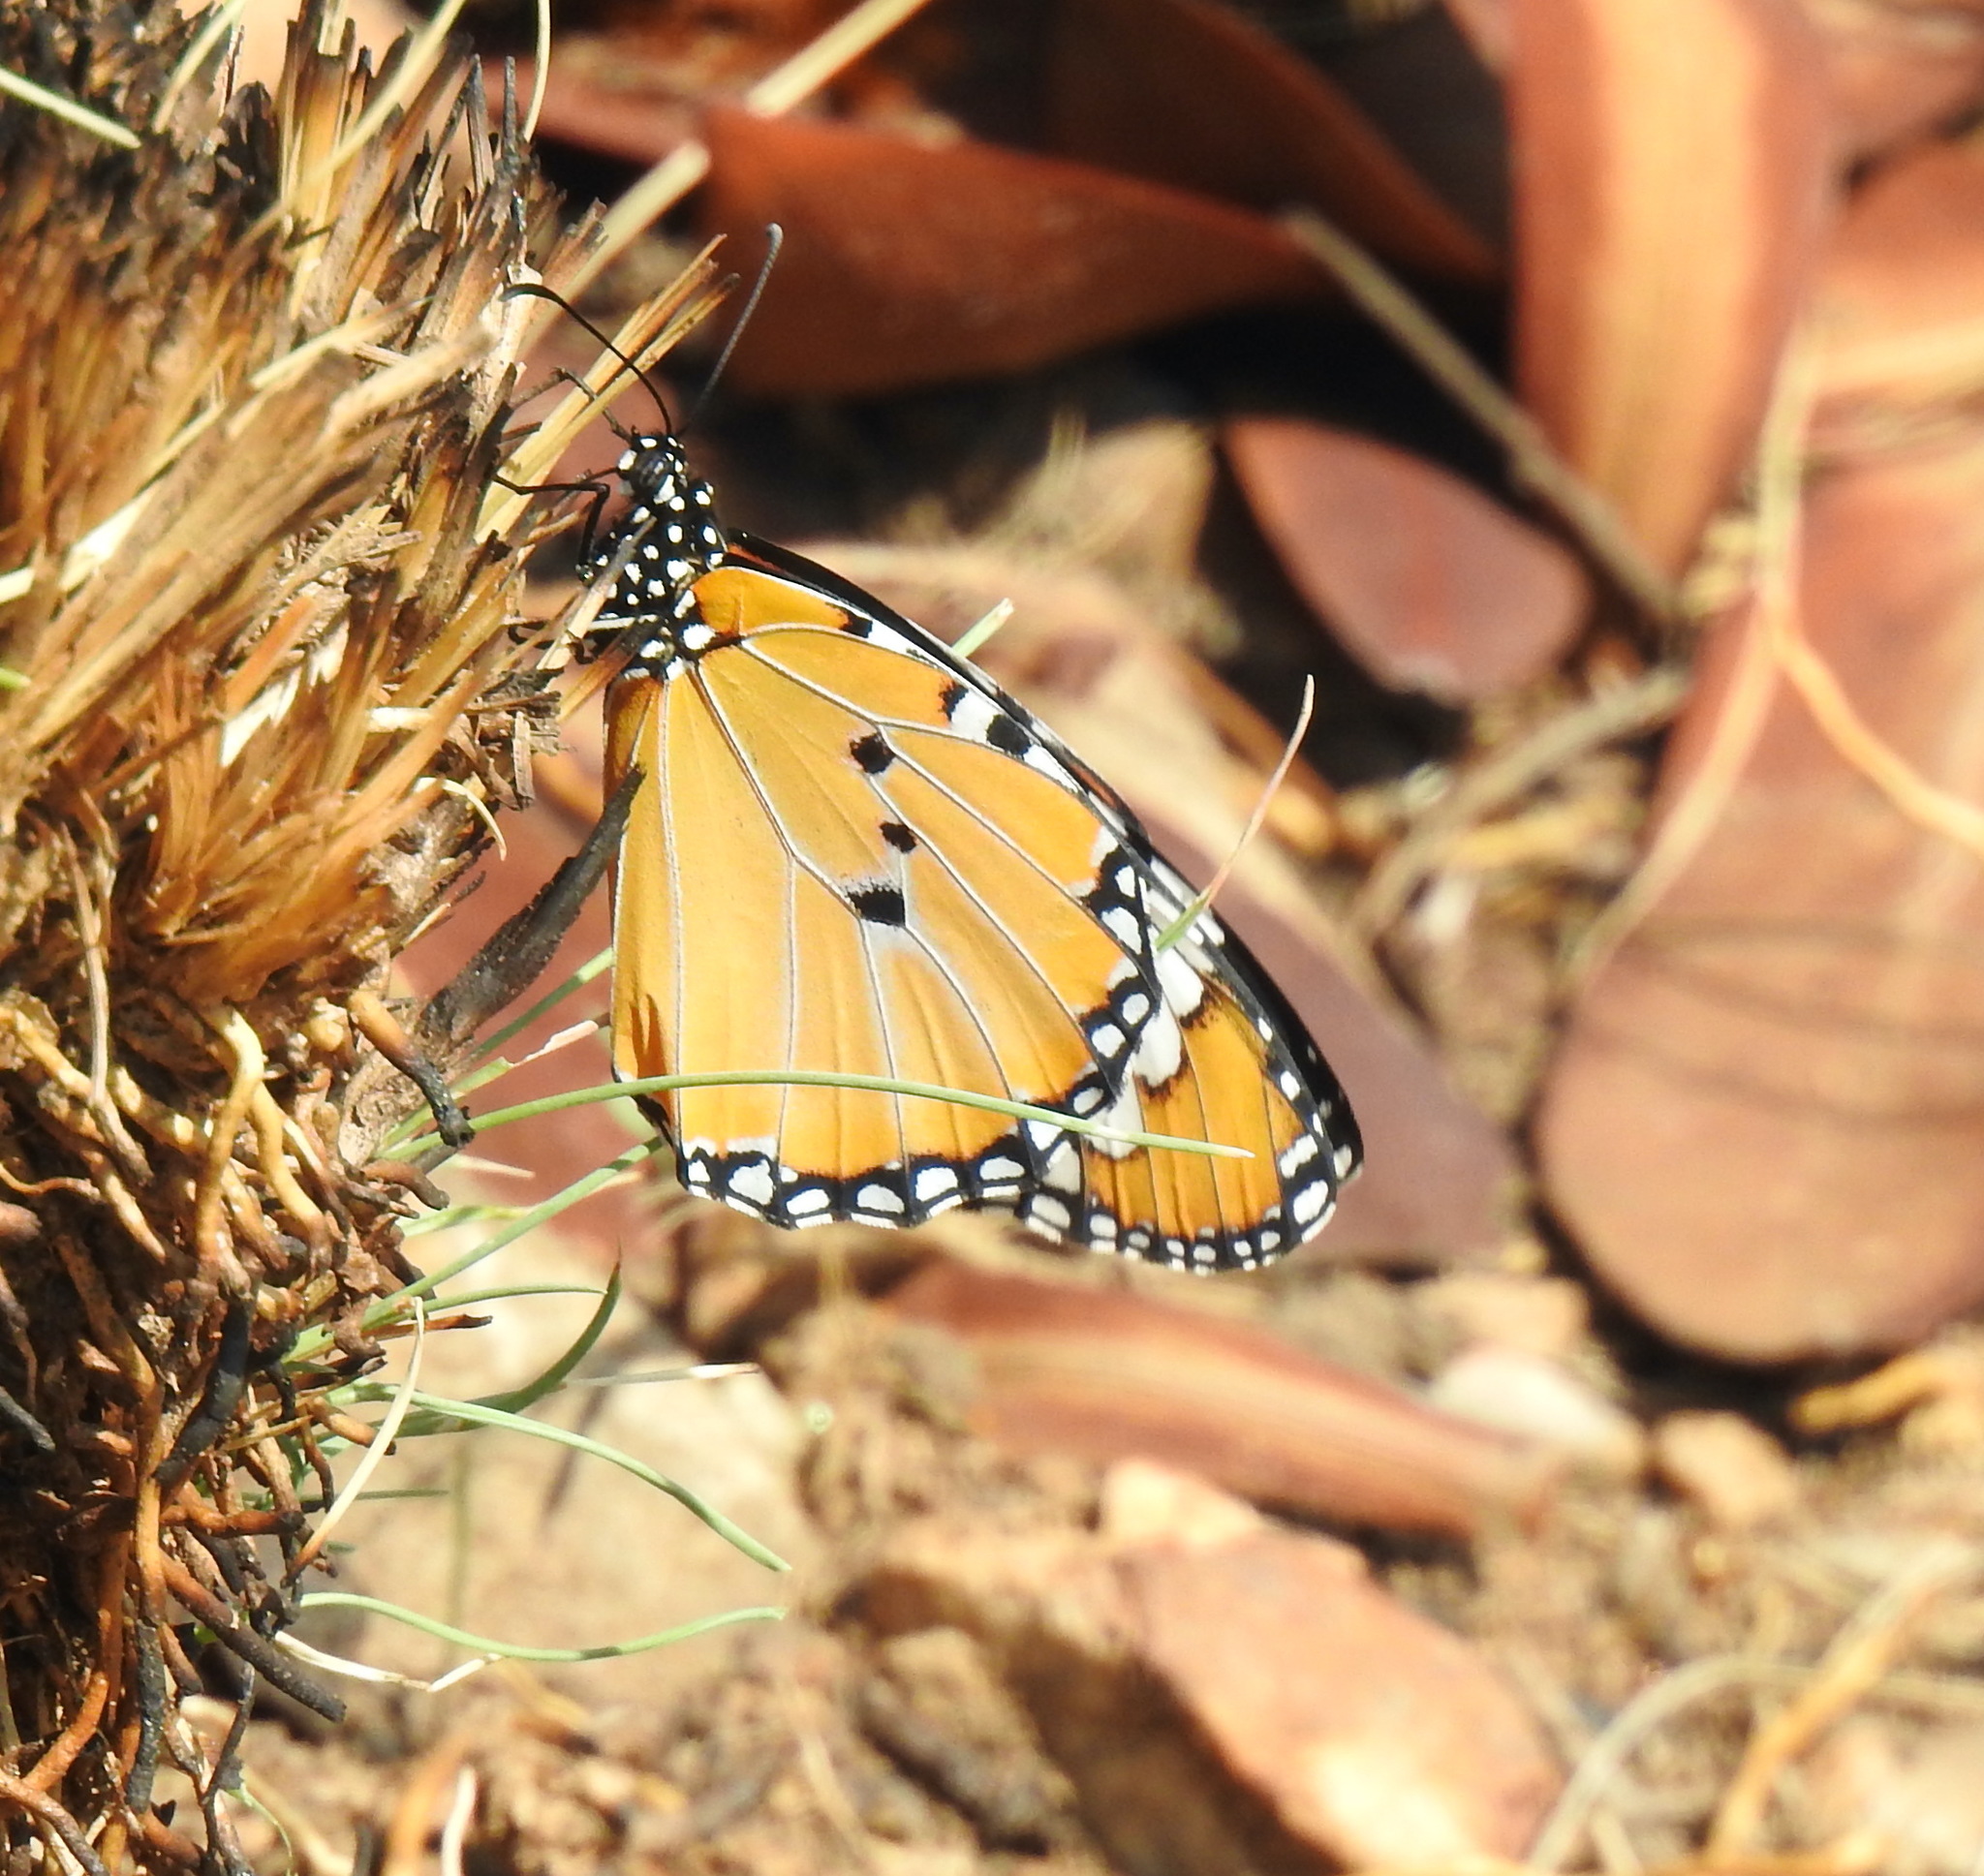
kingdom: Animalia
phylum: Arthropoda
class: Insecta
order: Lepidoptera
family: Nymphalidae
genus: Danaus
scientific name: Danaus chrysippus
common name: Plain tiger
